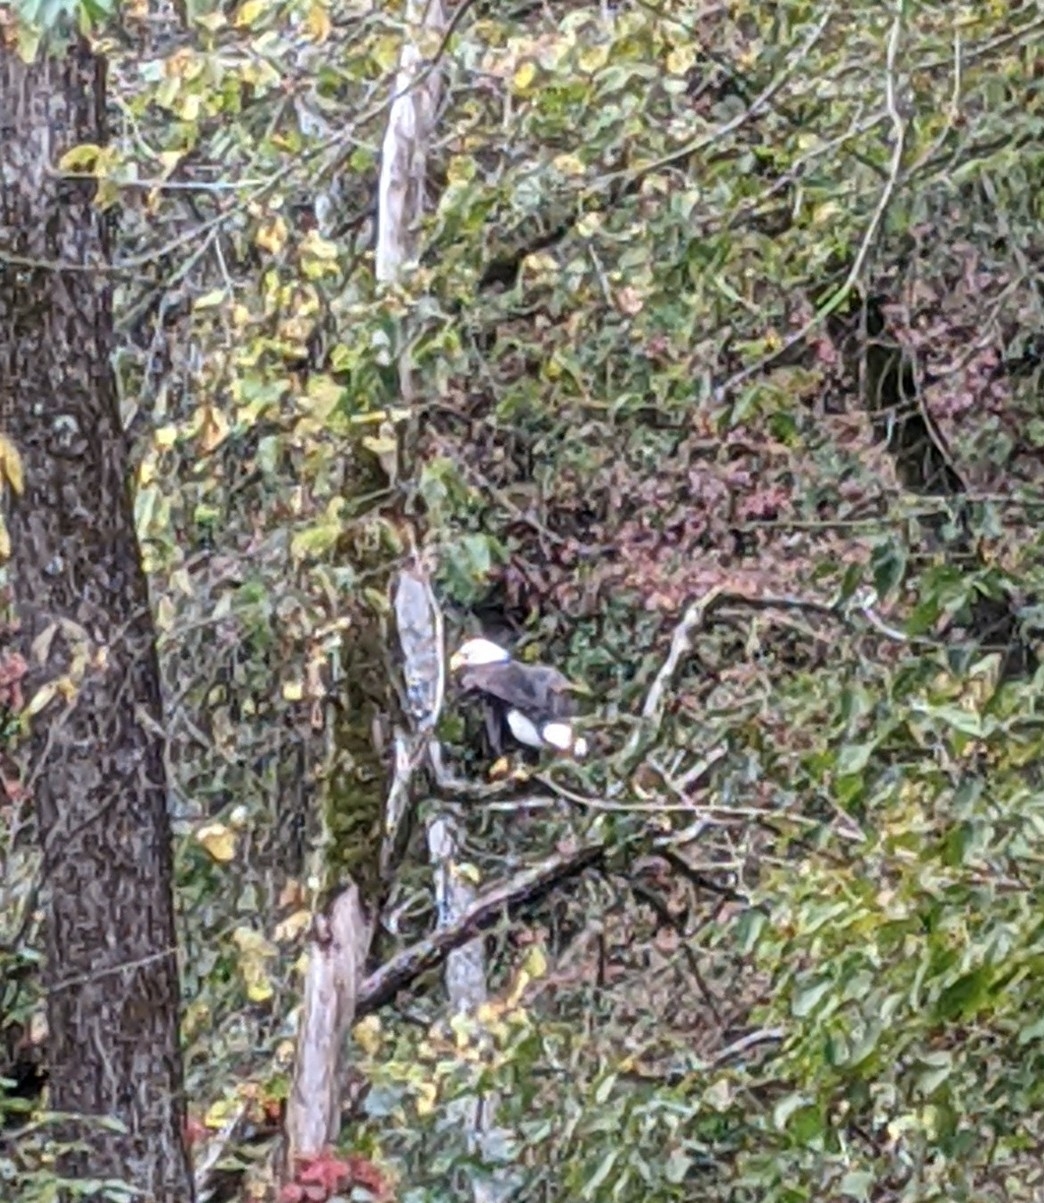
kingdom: Animalia
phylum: Chordata
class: Aves
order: Accipitriformes
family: Accipitridae
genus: Haliaeetus
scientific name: Haliaeetus leucocephalus
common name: Bald eagle
